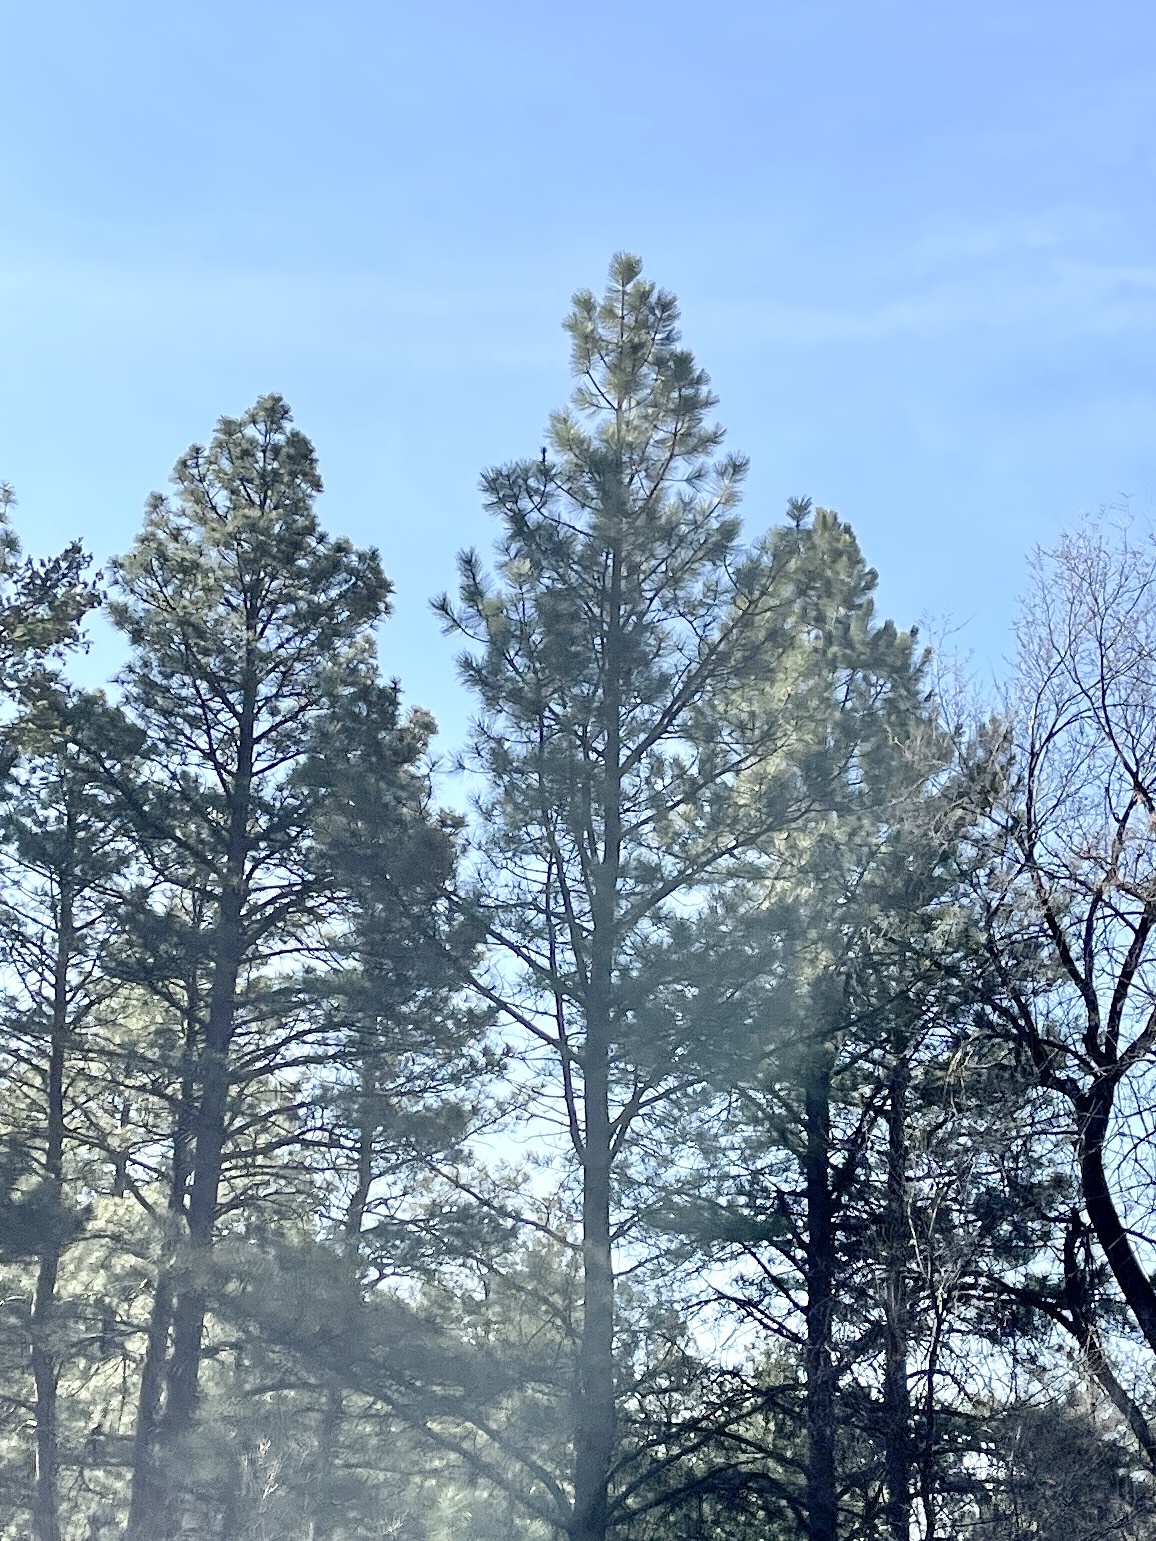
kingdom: Plantae
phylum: Tracheophyta
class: Pinopsida
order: Pinales
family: Pinaceae
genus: Pinus
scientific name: Pinus ponderosa
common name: Western yellow-pine
